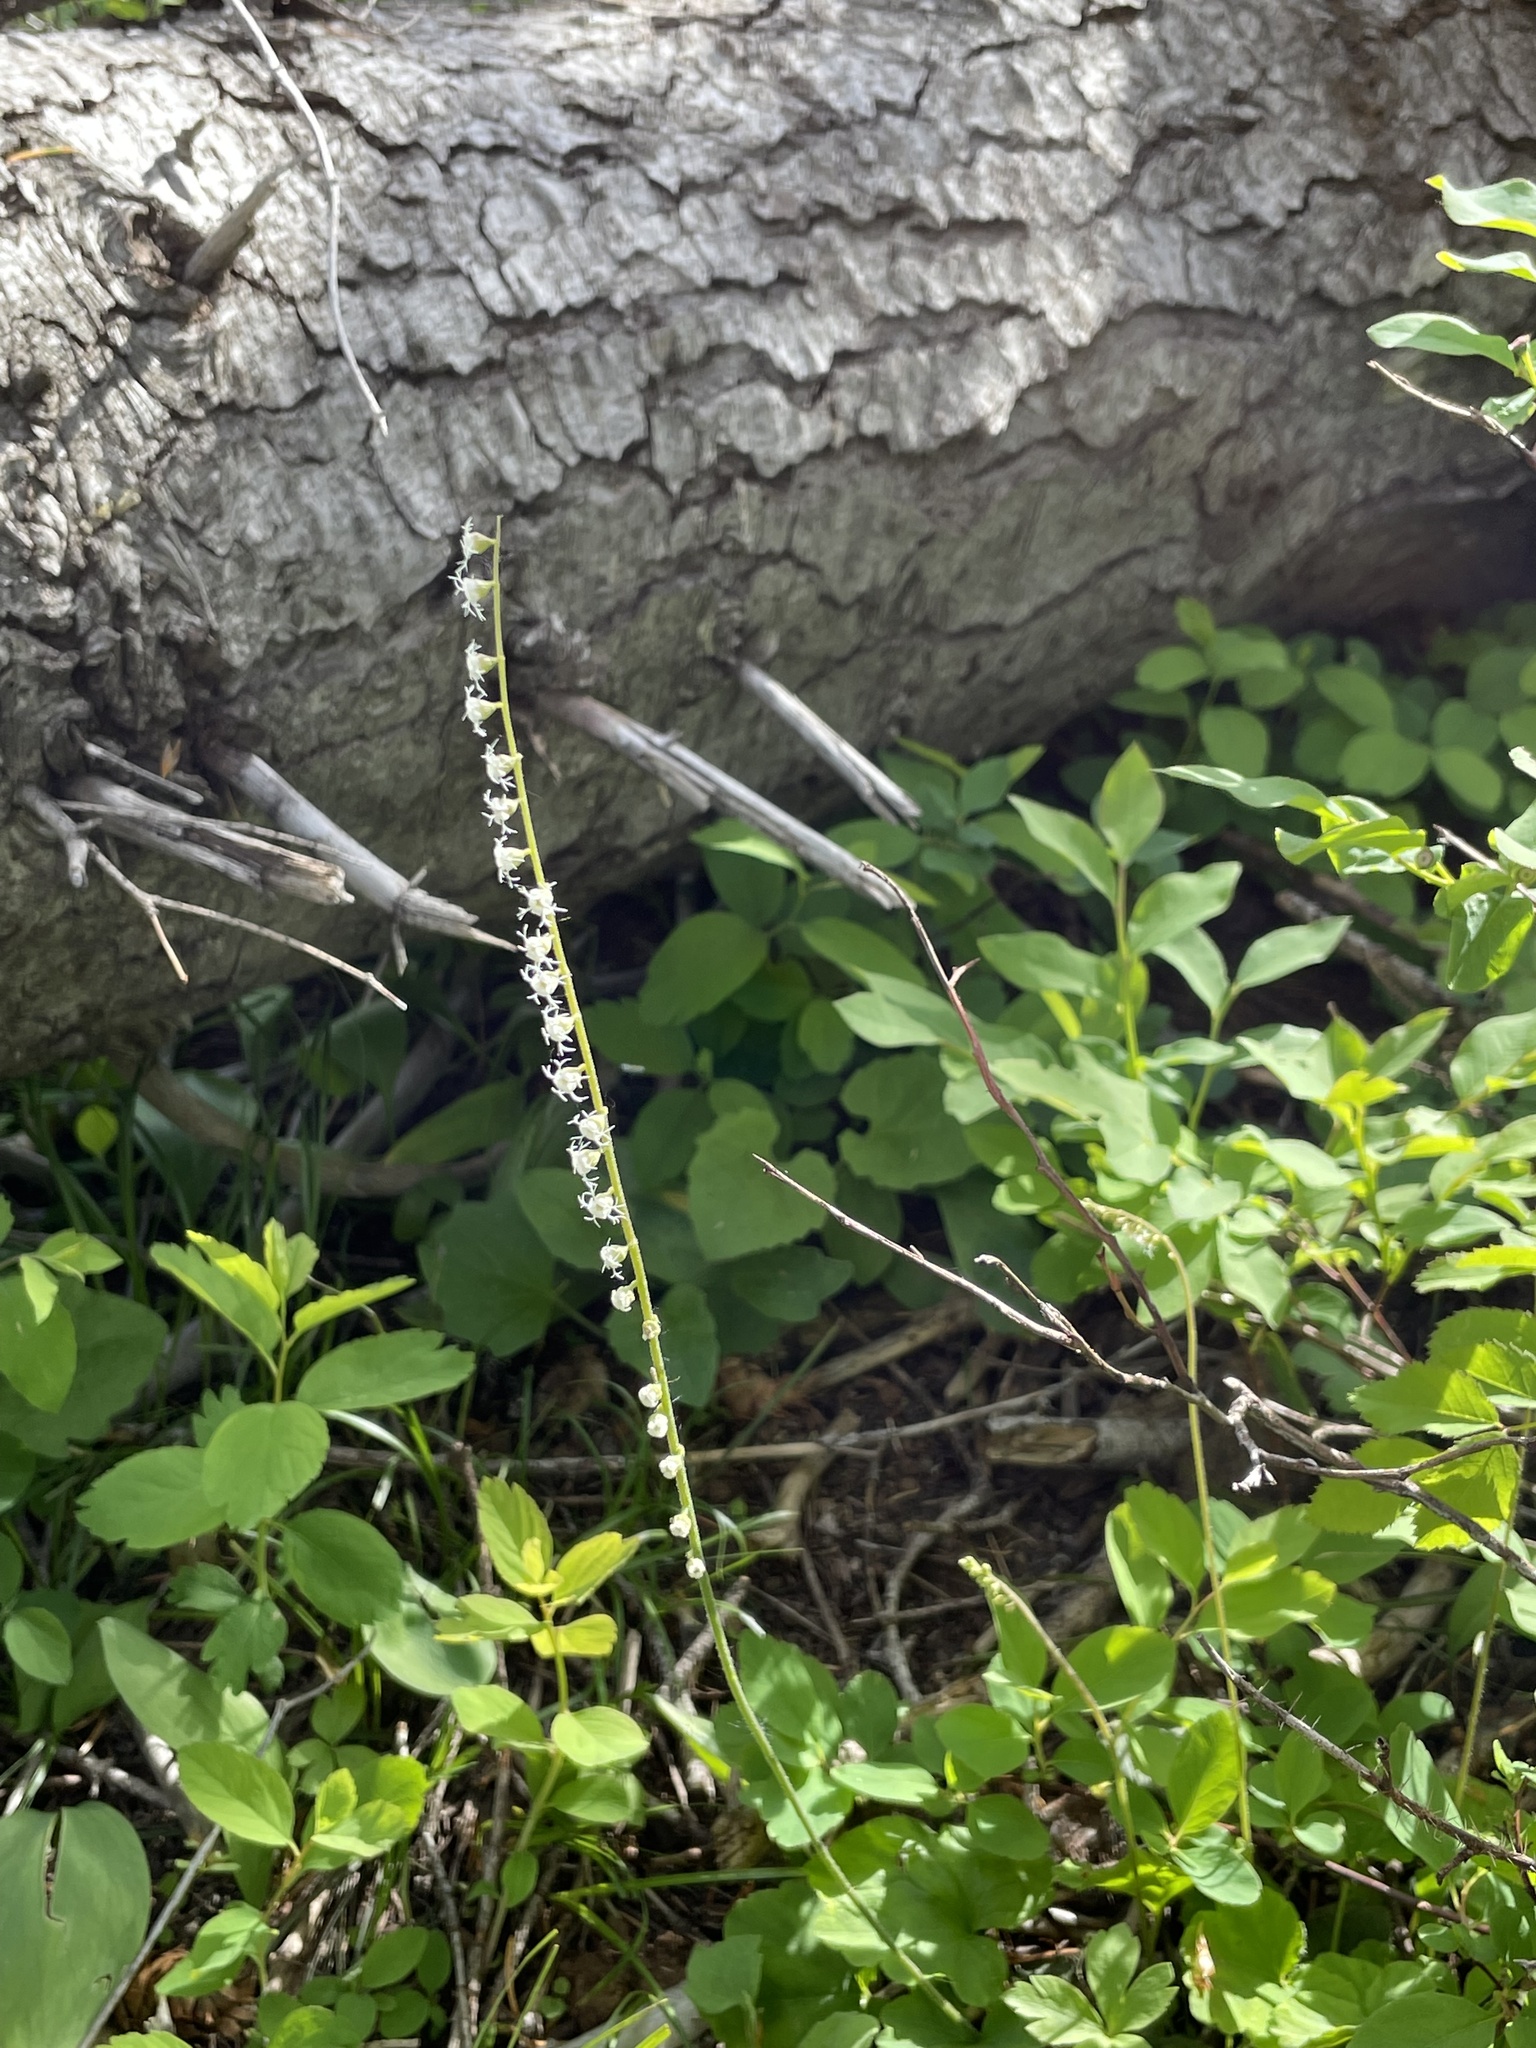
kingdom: Plantae
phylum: Tracheophyta
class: Magnoliopsida
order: Saxifragales
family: Saxifragaceae
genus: Ozomelis
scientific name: Ozomelis stauropetala
